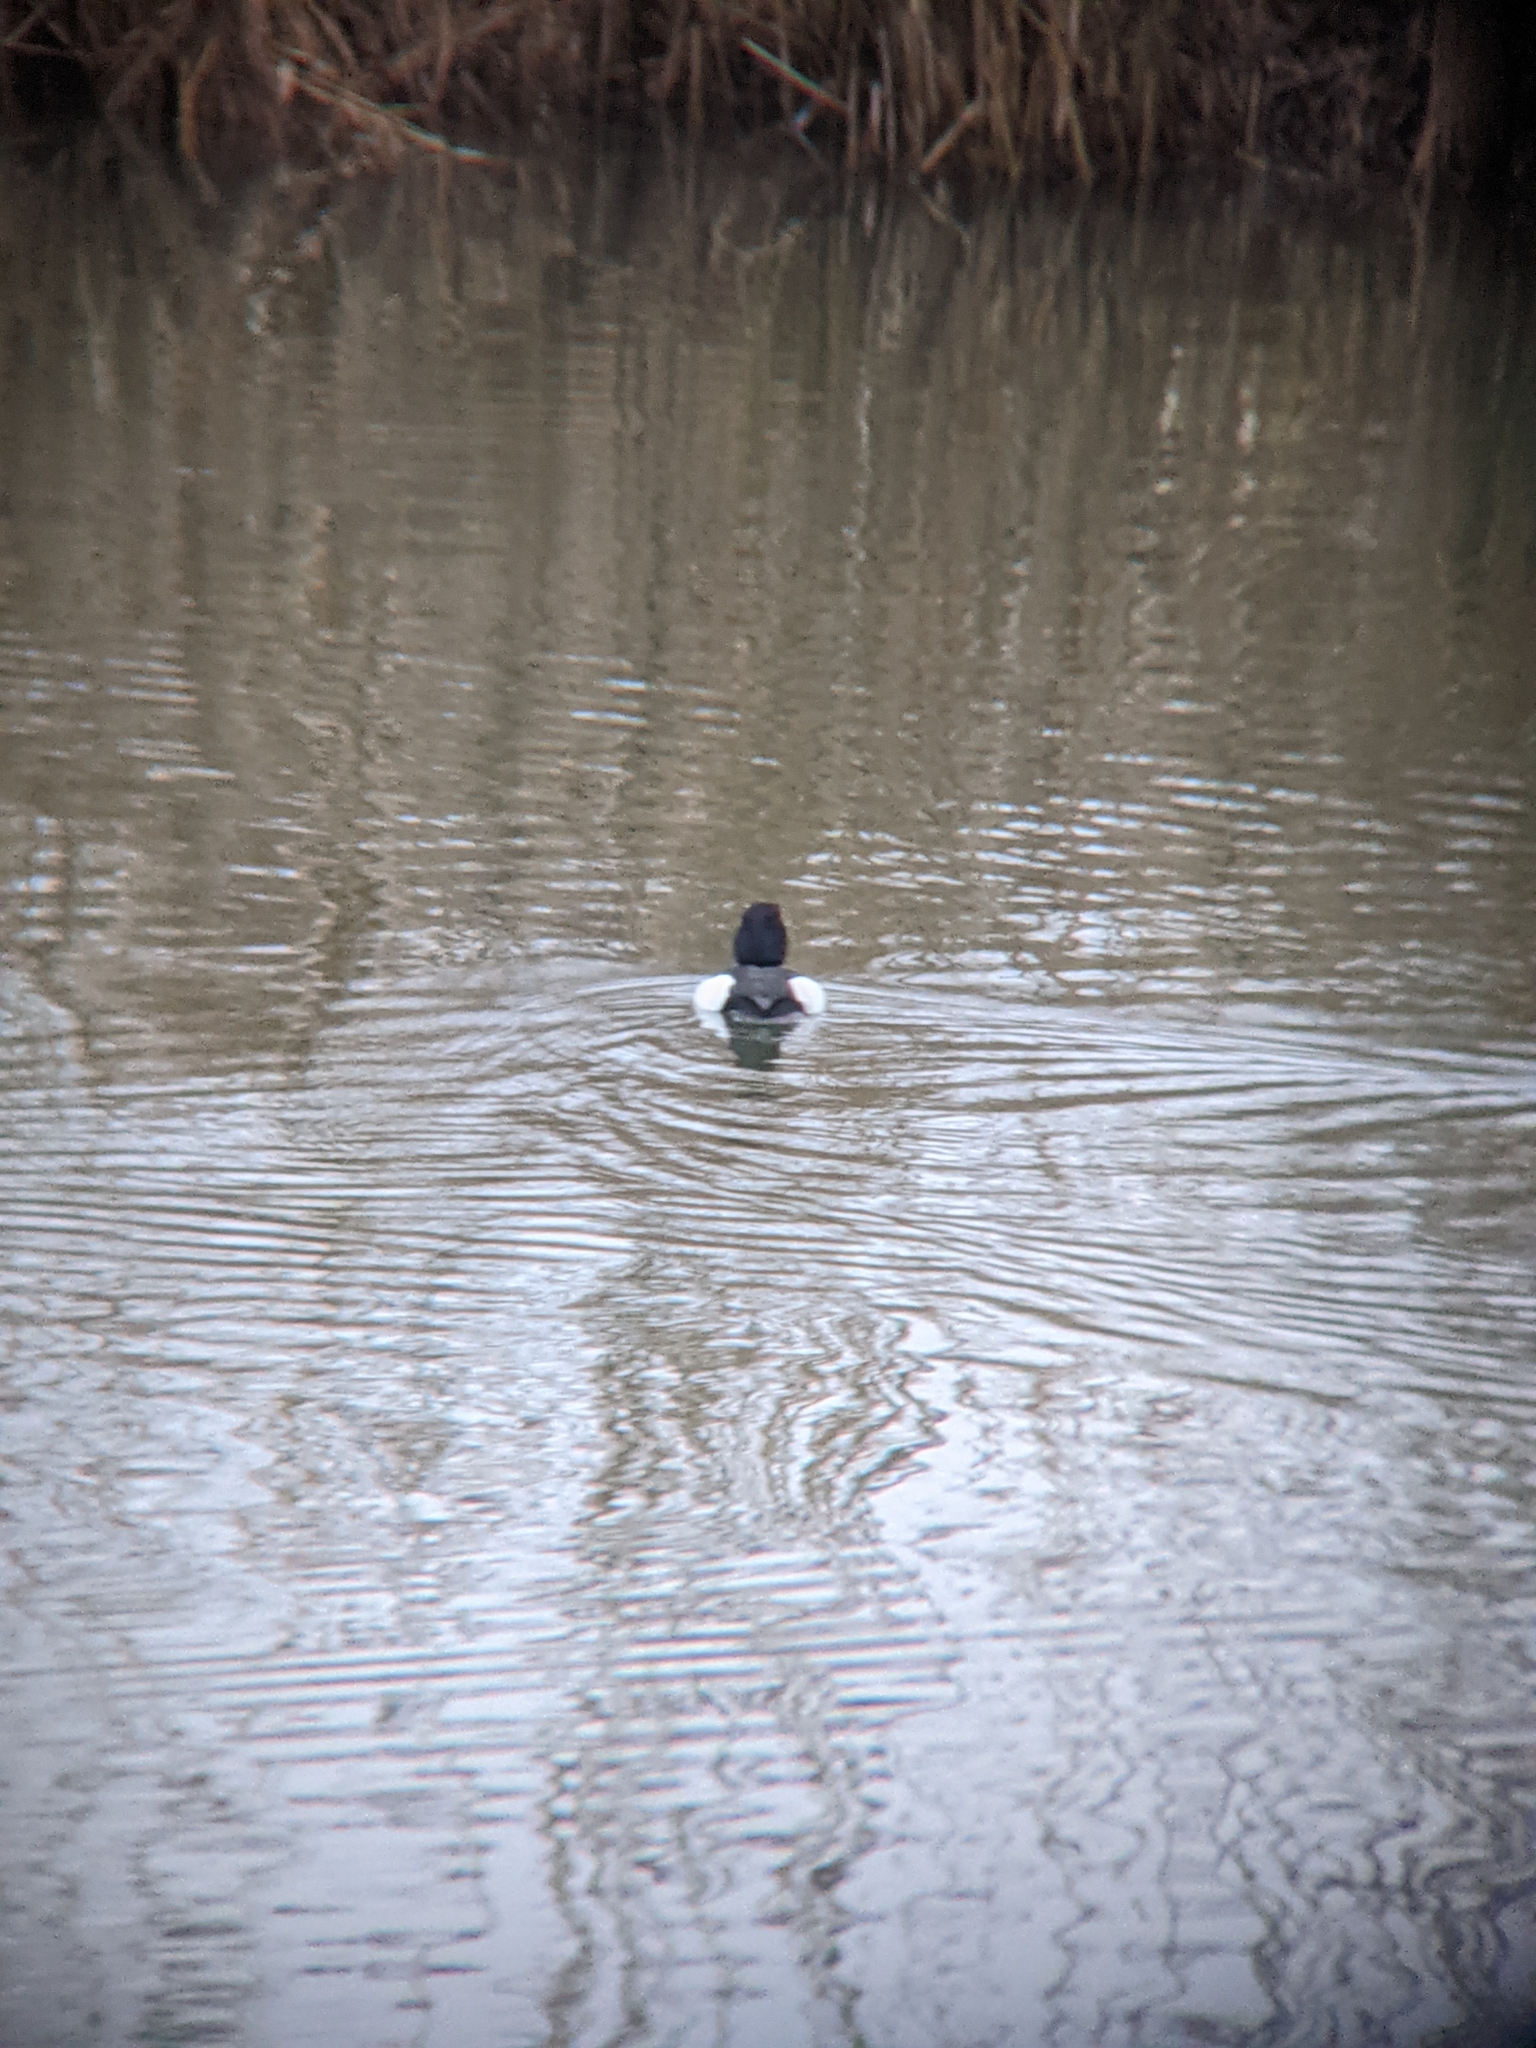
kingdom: Animalia
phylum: Chordata
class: Aves
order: Anseriformes
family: Anatidae
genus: Aythya
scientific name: Aythya fuligula
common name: Tufted duck
